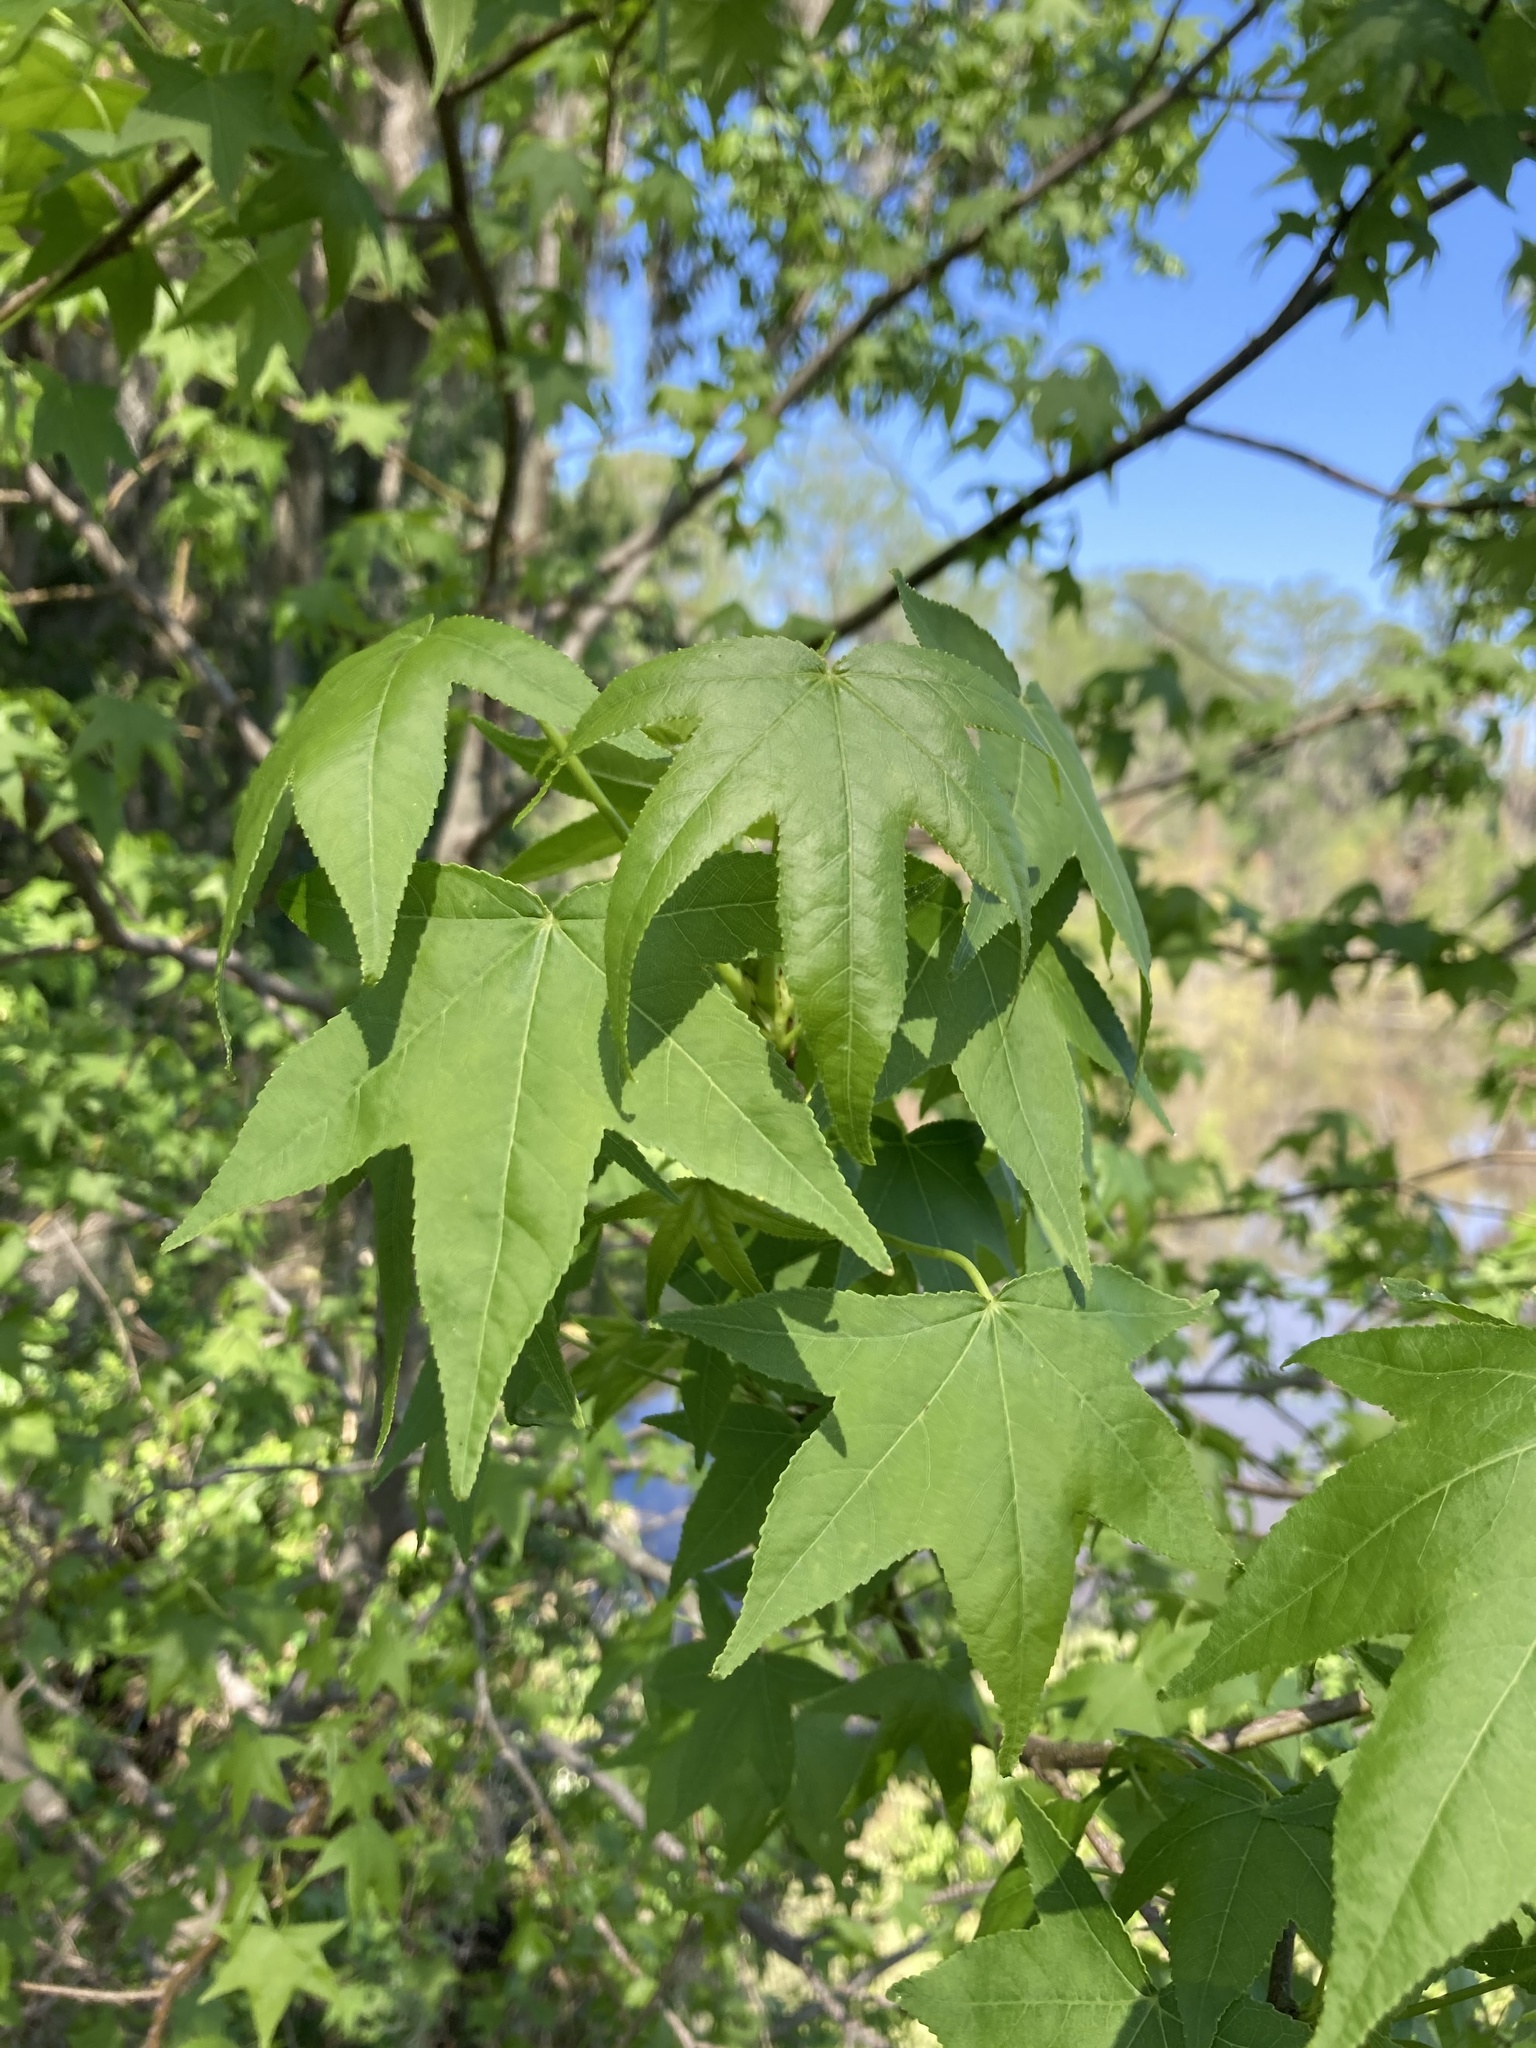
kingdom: Plantae
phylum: Tracheophyta
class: Magnoliopsida
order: Saxifragales
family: Altingiaceae
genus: Liquidambar
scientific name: Liquidambar styraciflua
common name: Sweet gum
